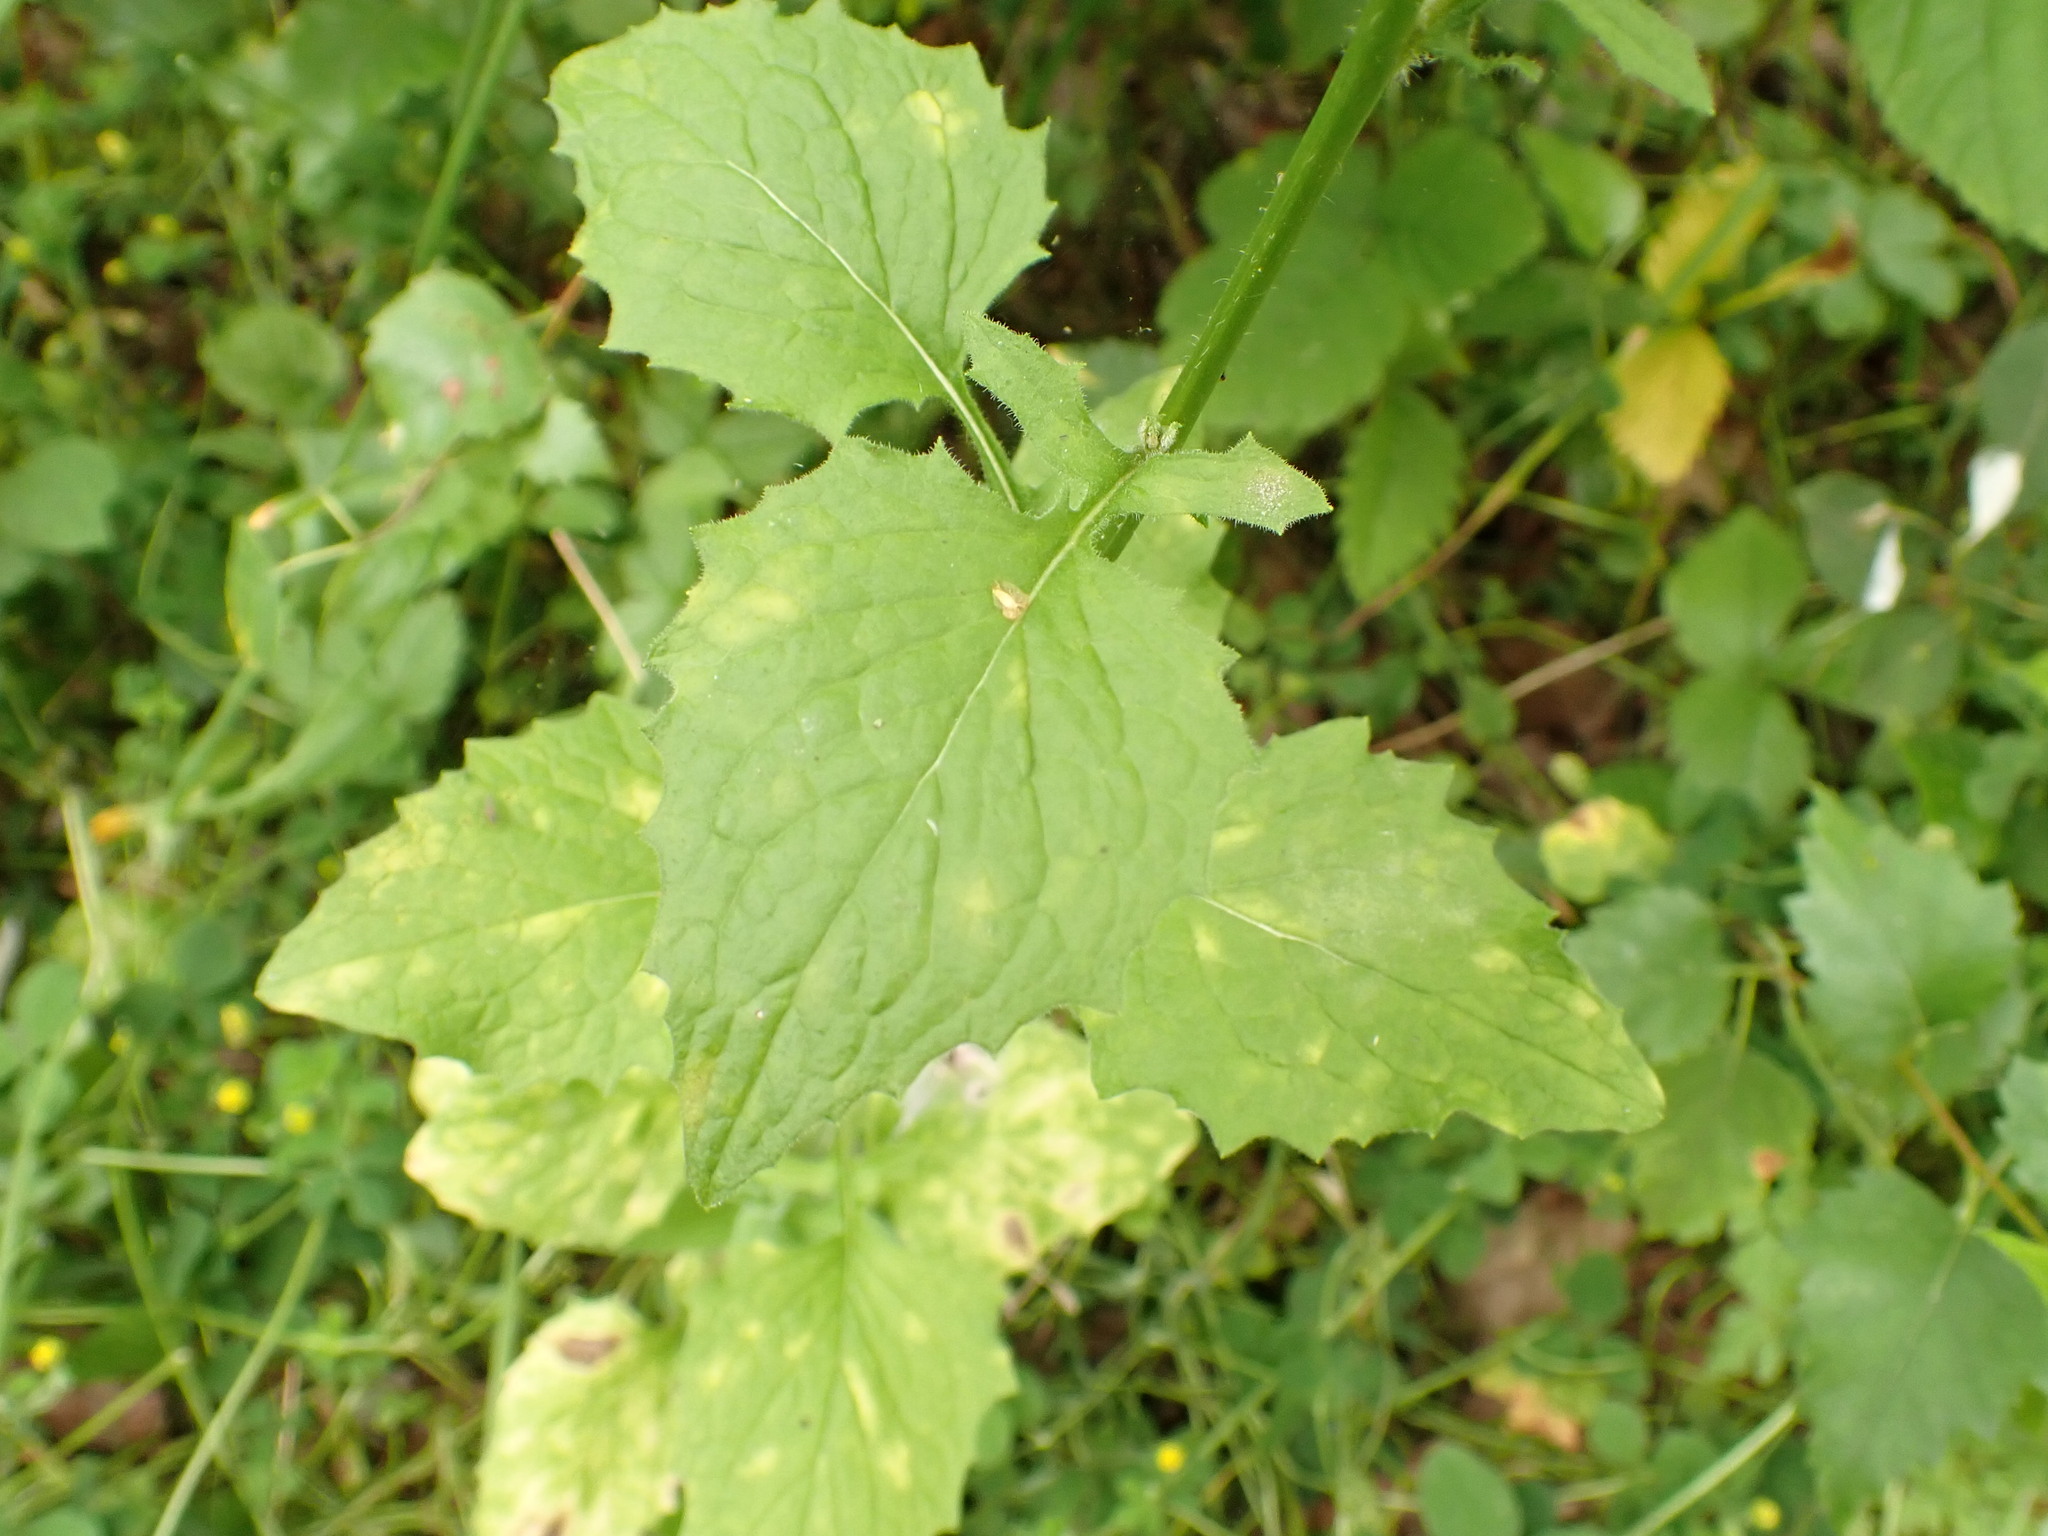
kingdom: Plantae
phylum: Tracheophyta
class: Magnoliopsida
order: Asterales
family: Asteraceae
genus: Lapsana
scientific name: Lapsana communis
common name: Nipplewort
